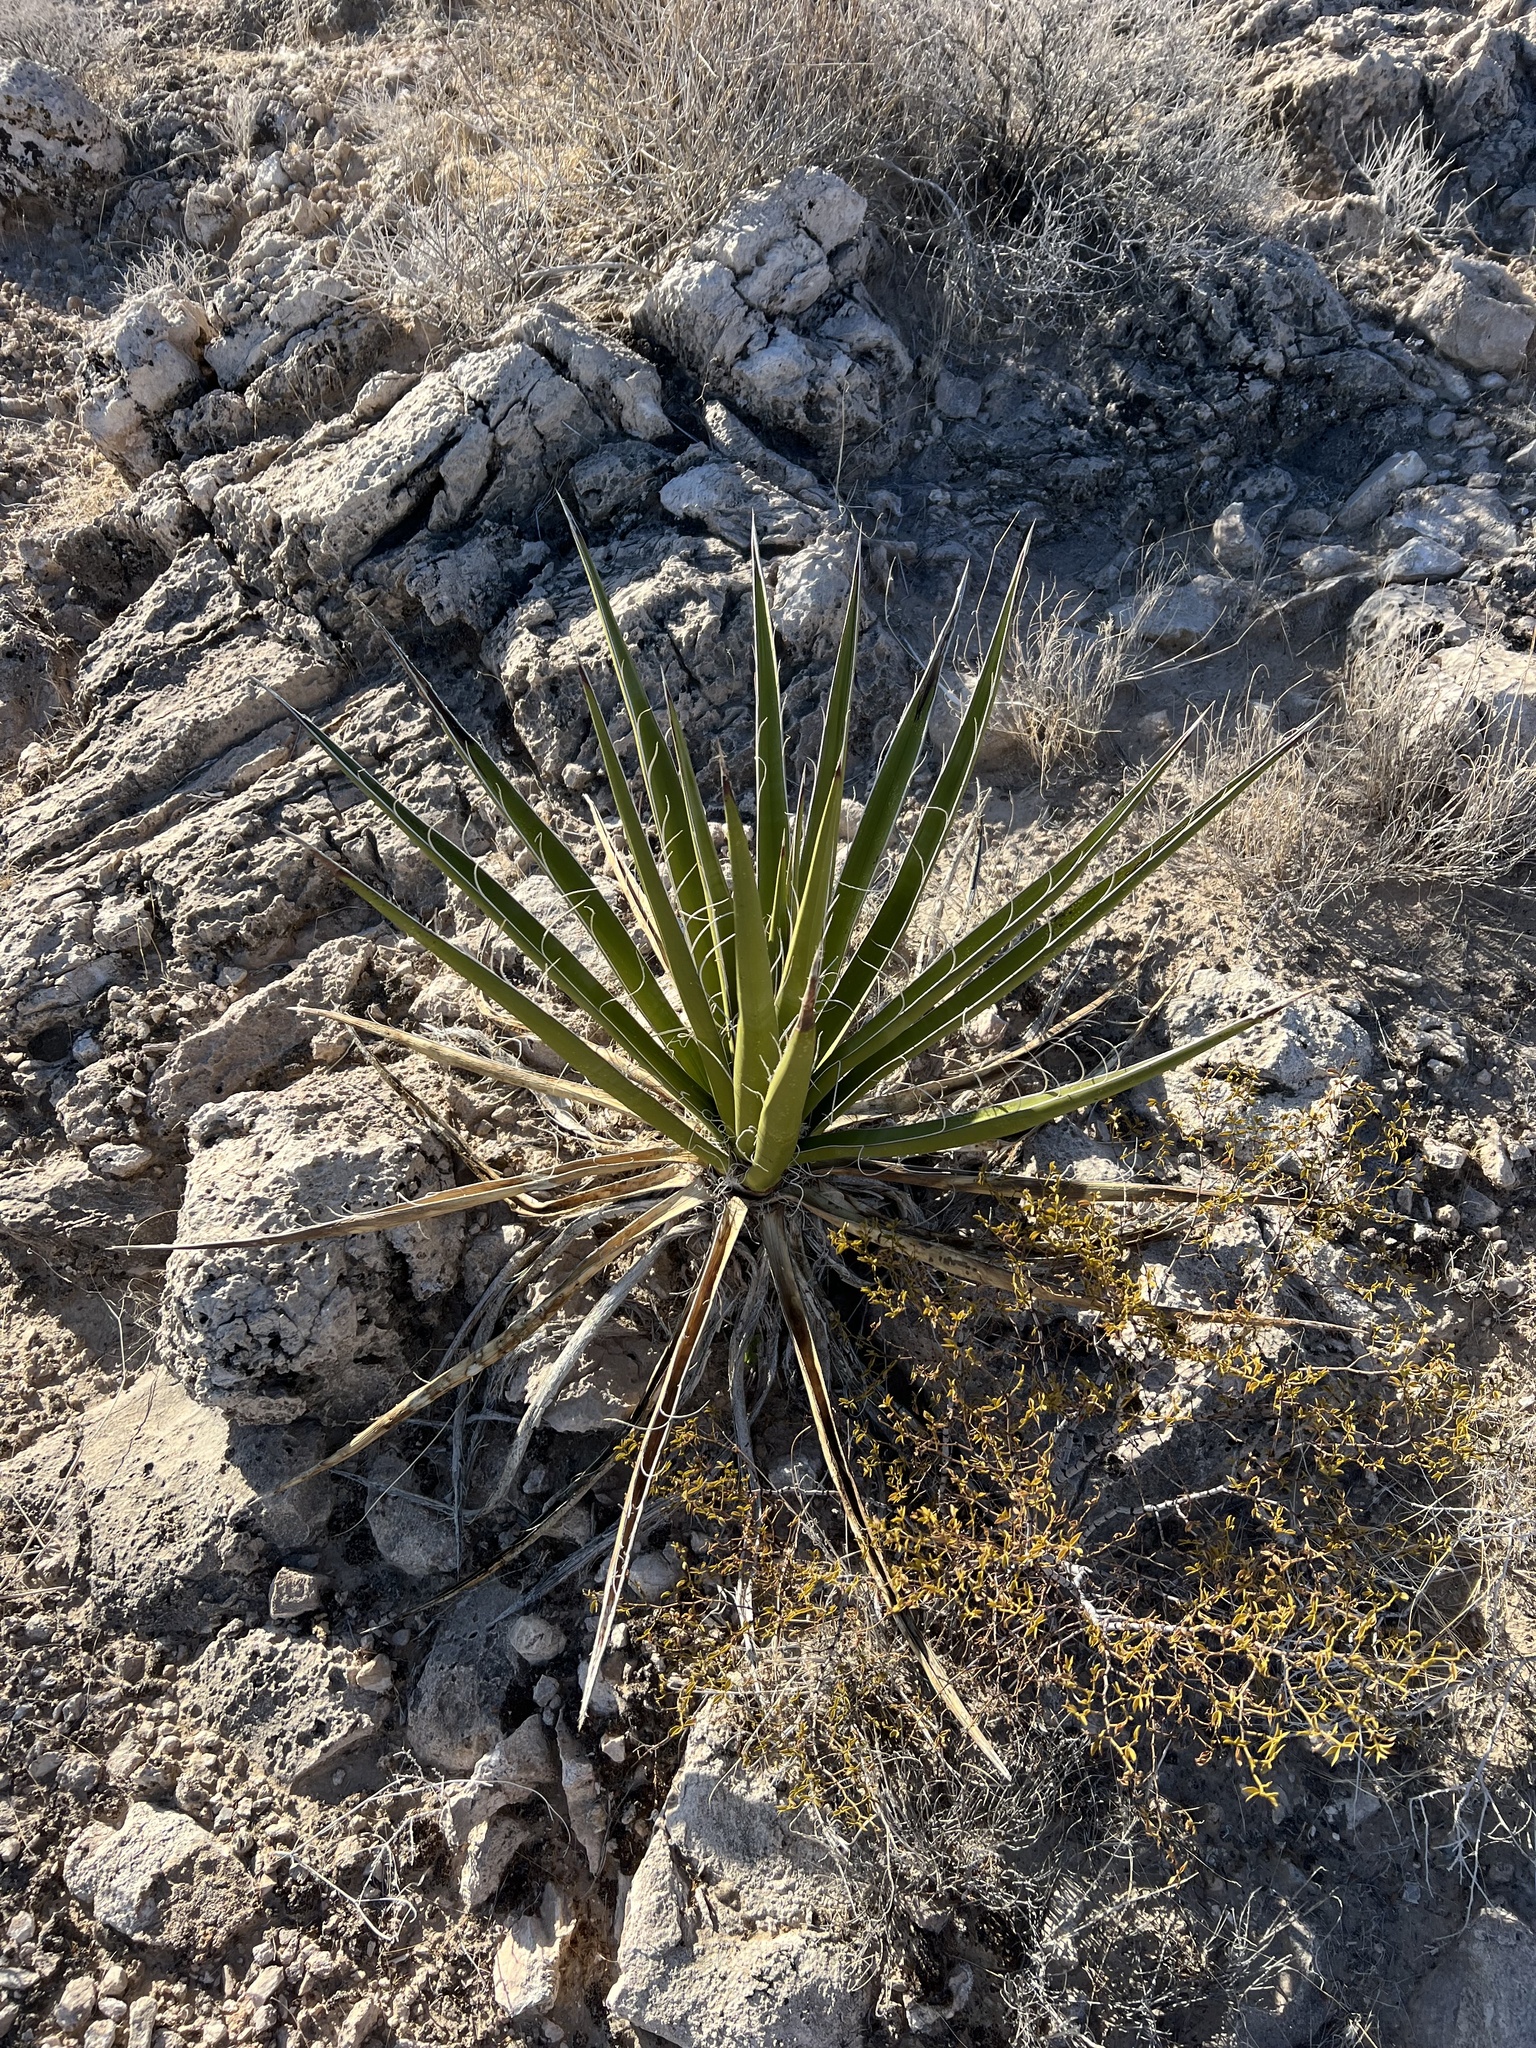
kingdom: Plantae
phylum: Tracheophyta
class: Liliopsida
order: Asparagales
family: Asparagaceae
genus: Yucca
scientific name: Yucca schidigera
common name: Mojave yucca
